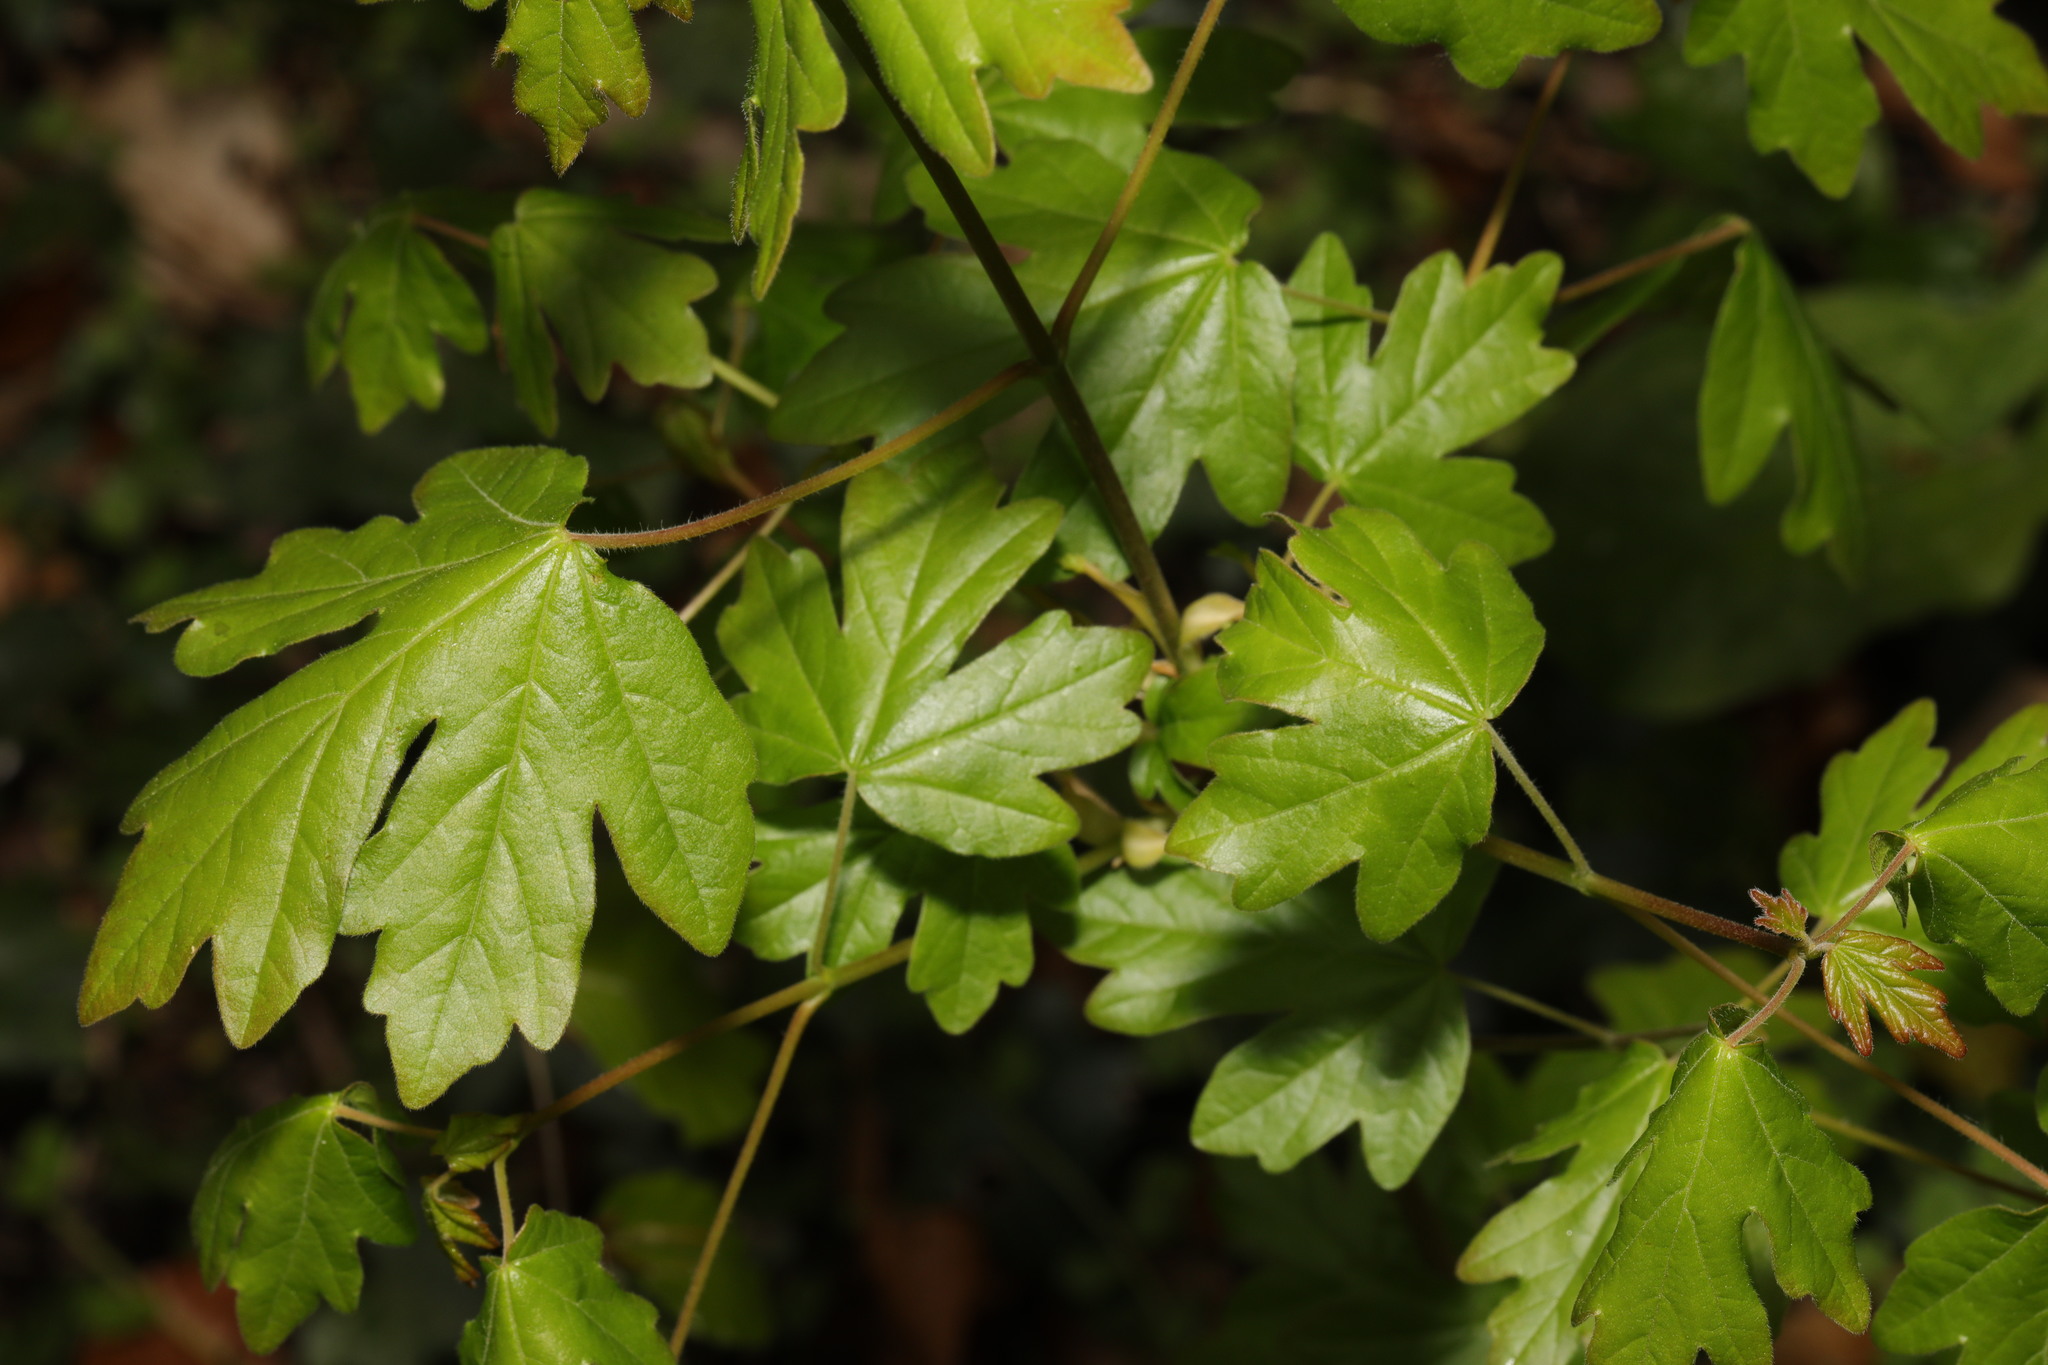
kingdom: Plantae
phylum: Tracheophyta
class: Magnoliopsida
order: Sapindales
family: Sapindaceae
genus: Acer
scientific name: Acer campestre
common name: Field maple
